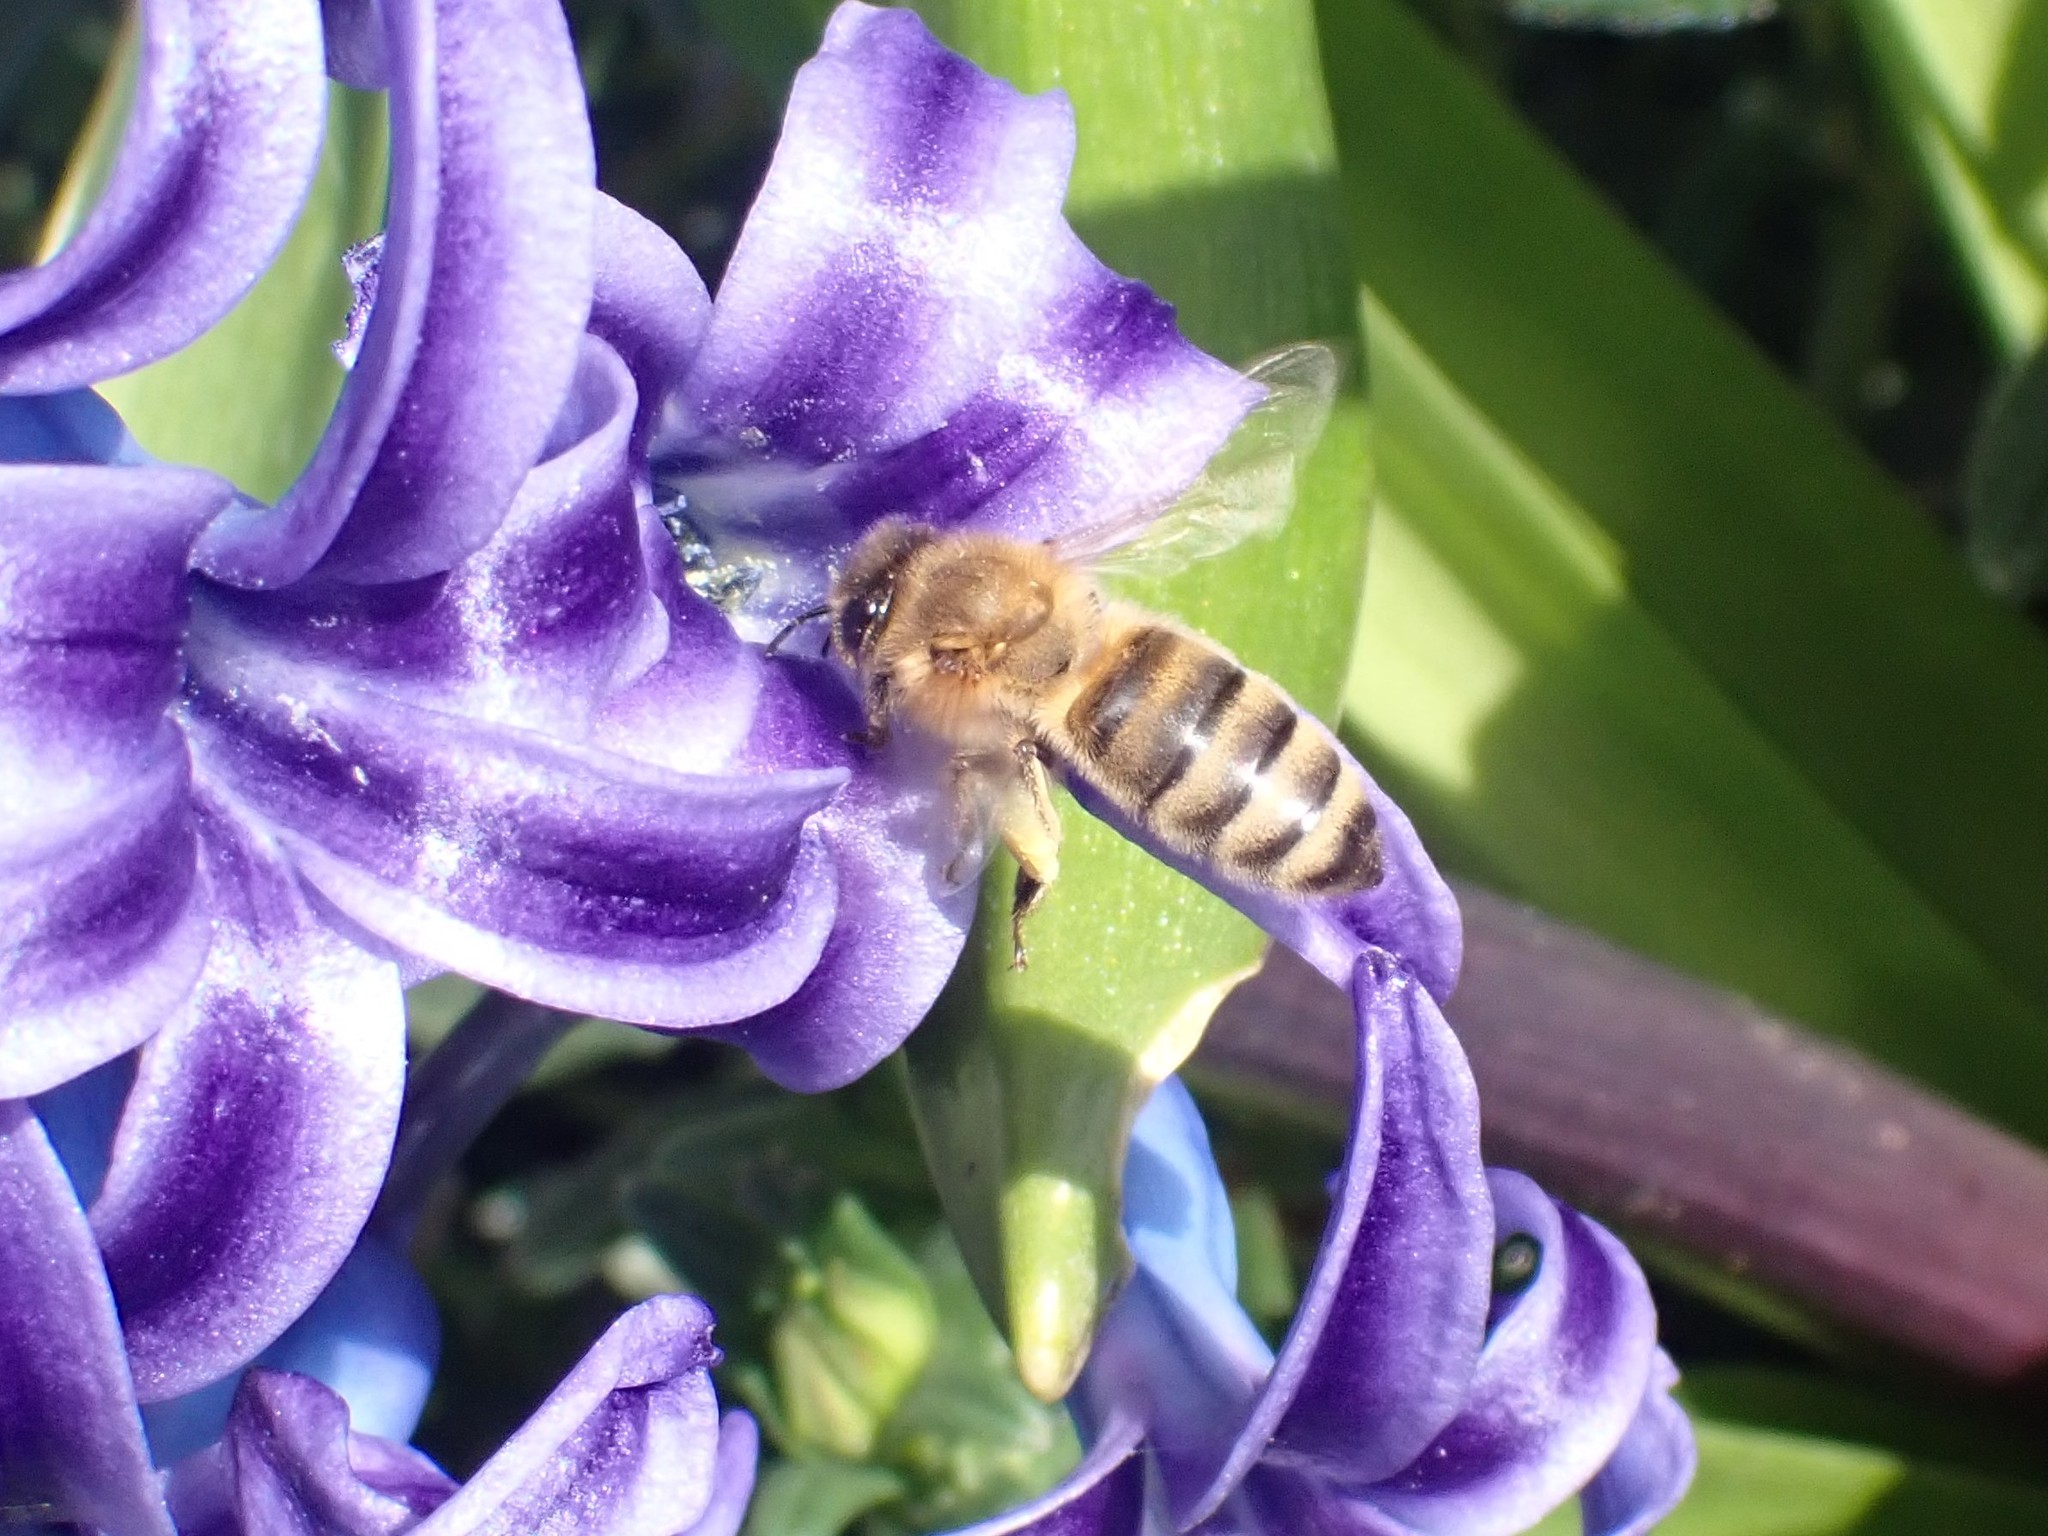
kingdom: Animalia
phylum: Arthropoda
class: Insecta
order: Hymenoptera
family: Apidae
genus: Apis
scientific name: Apis mellifera
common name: Honey bee
